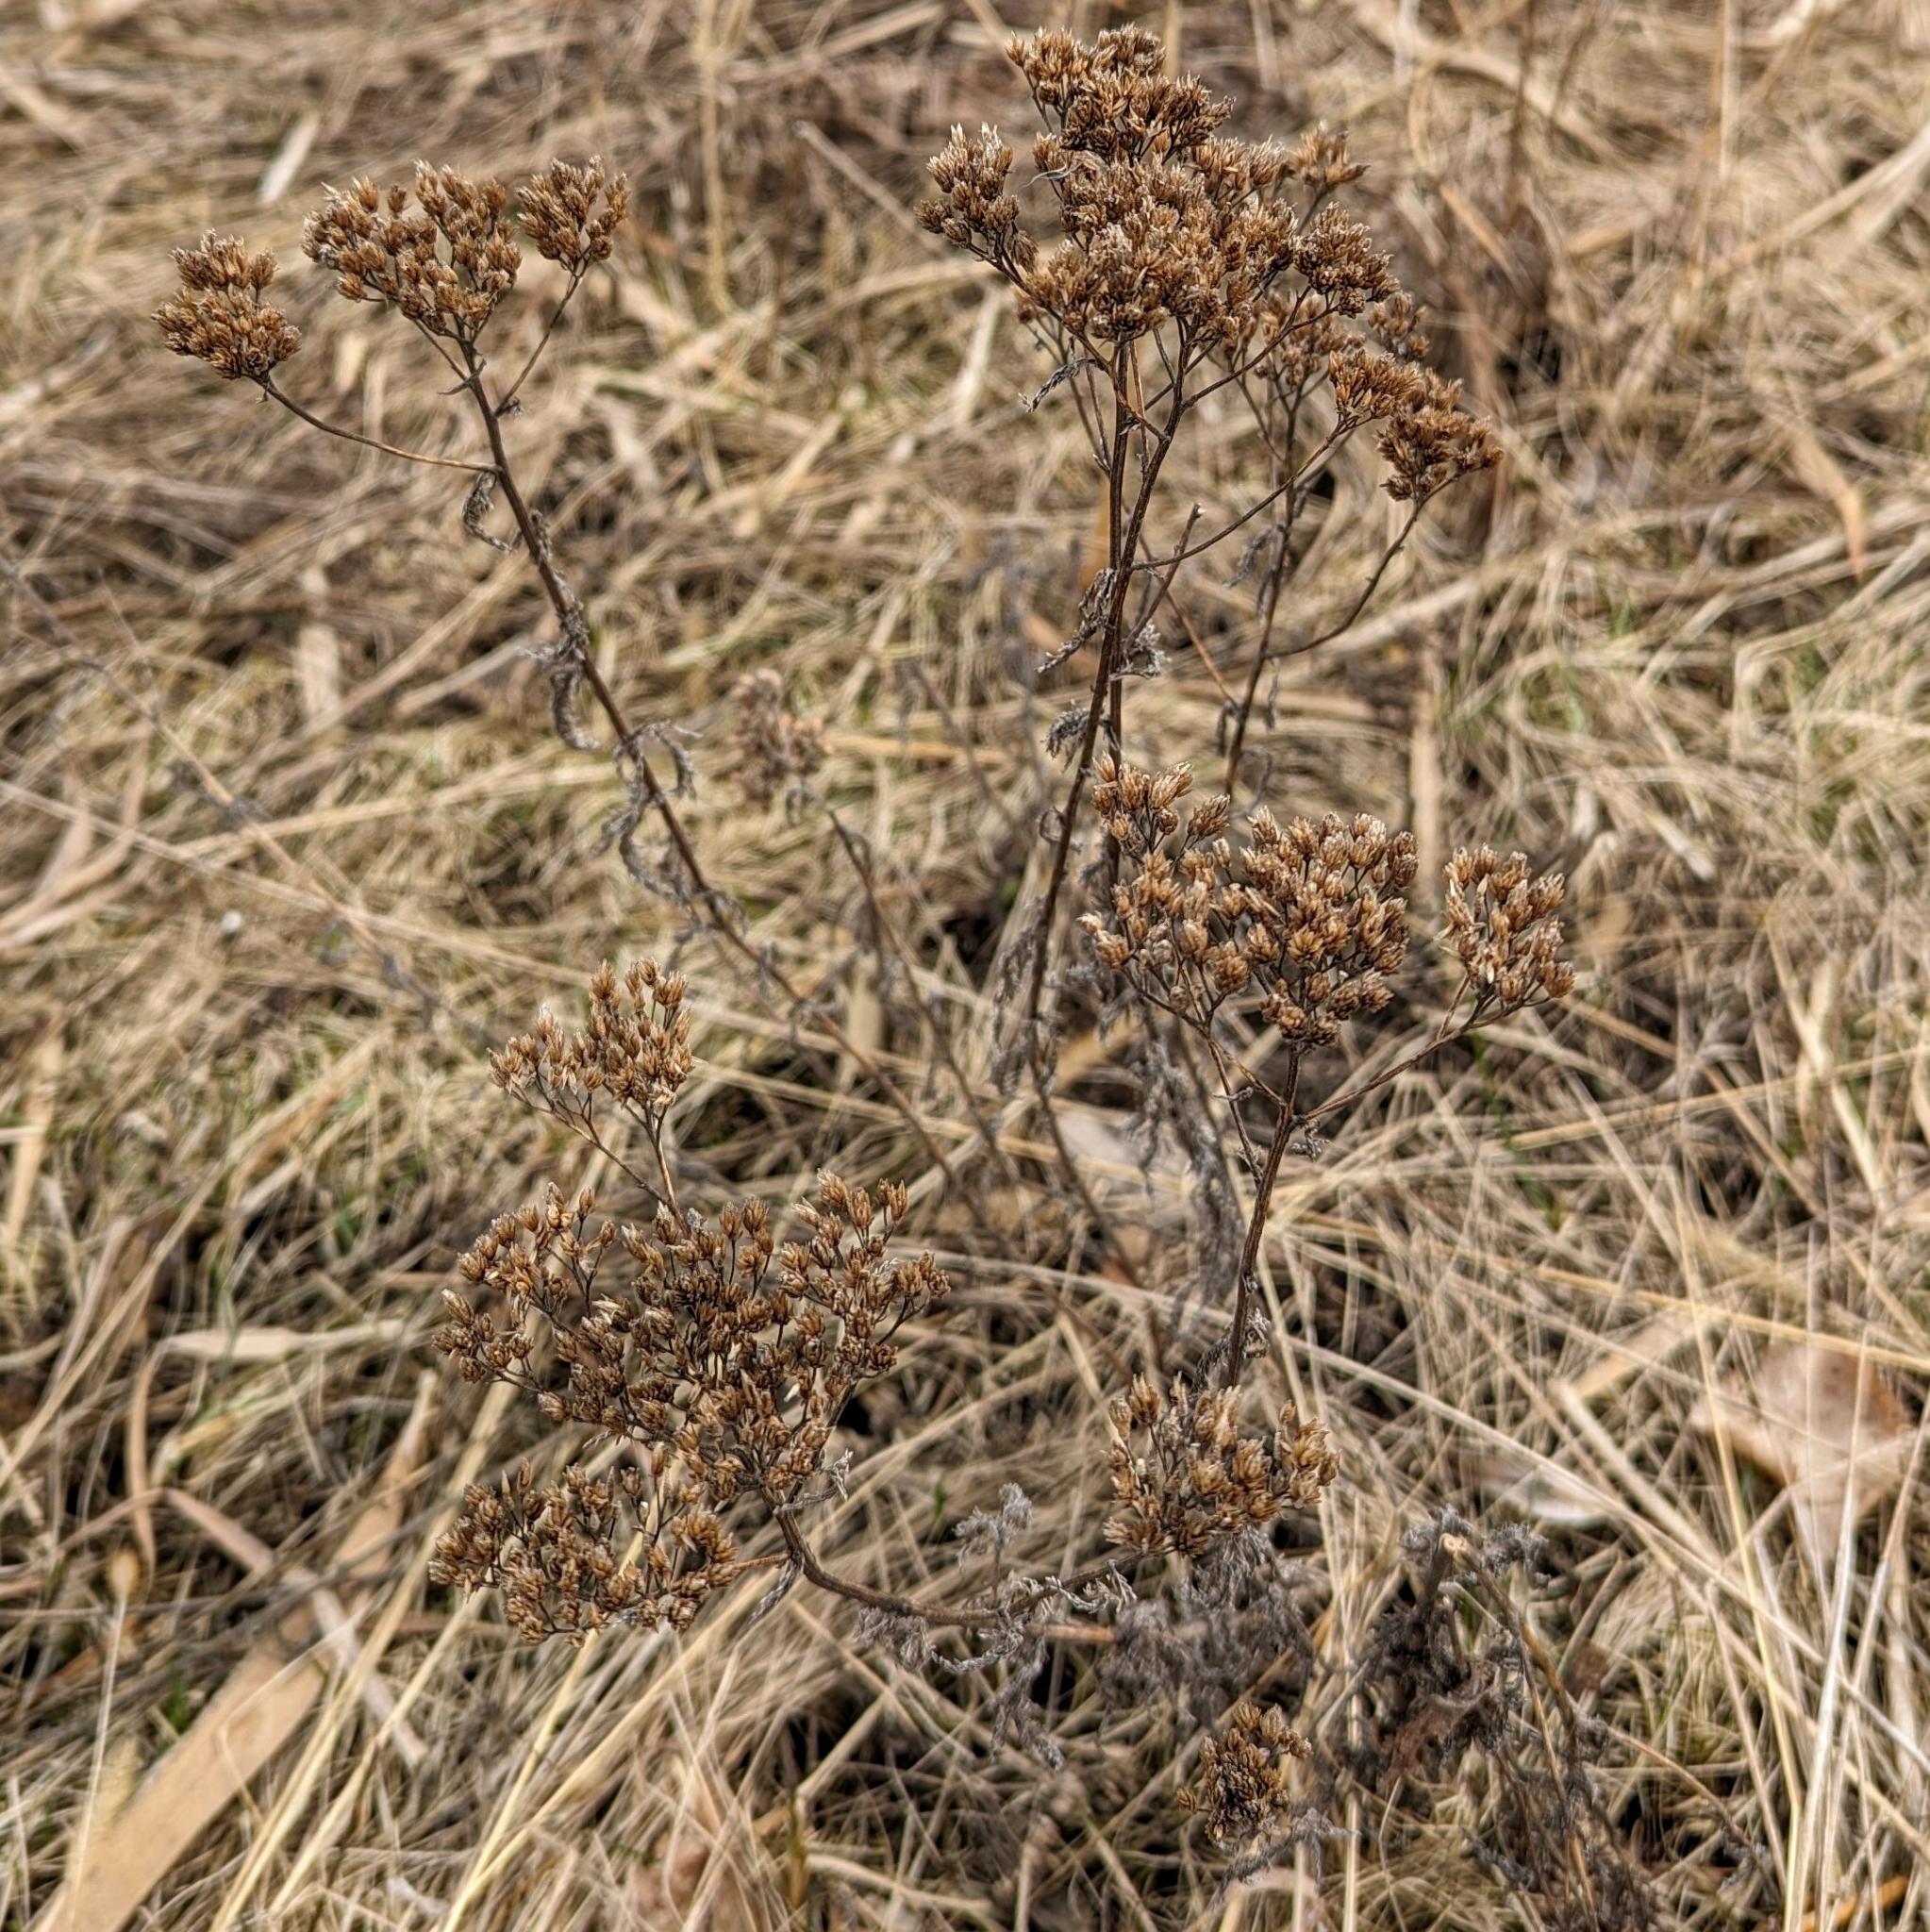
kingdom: Plantae
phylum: Tracheophyta
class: Magnoliopsida
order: Asterales
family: Asteraceae
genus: Achillea
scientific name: Achillea
